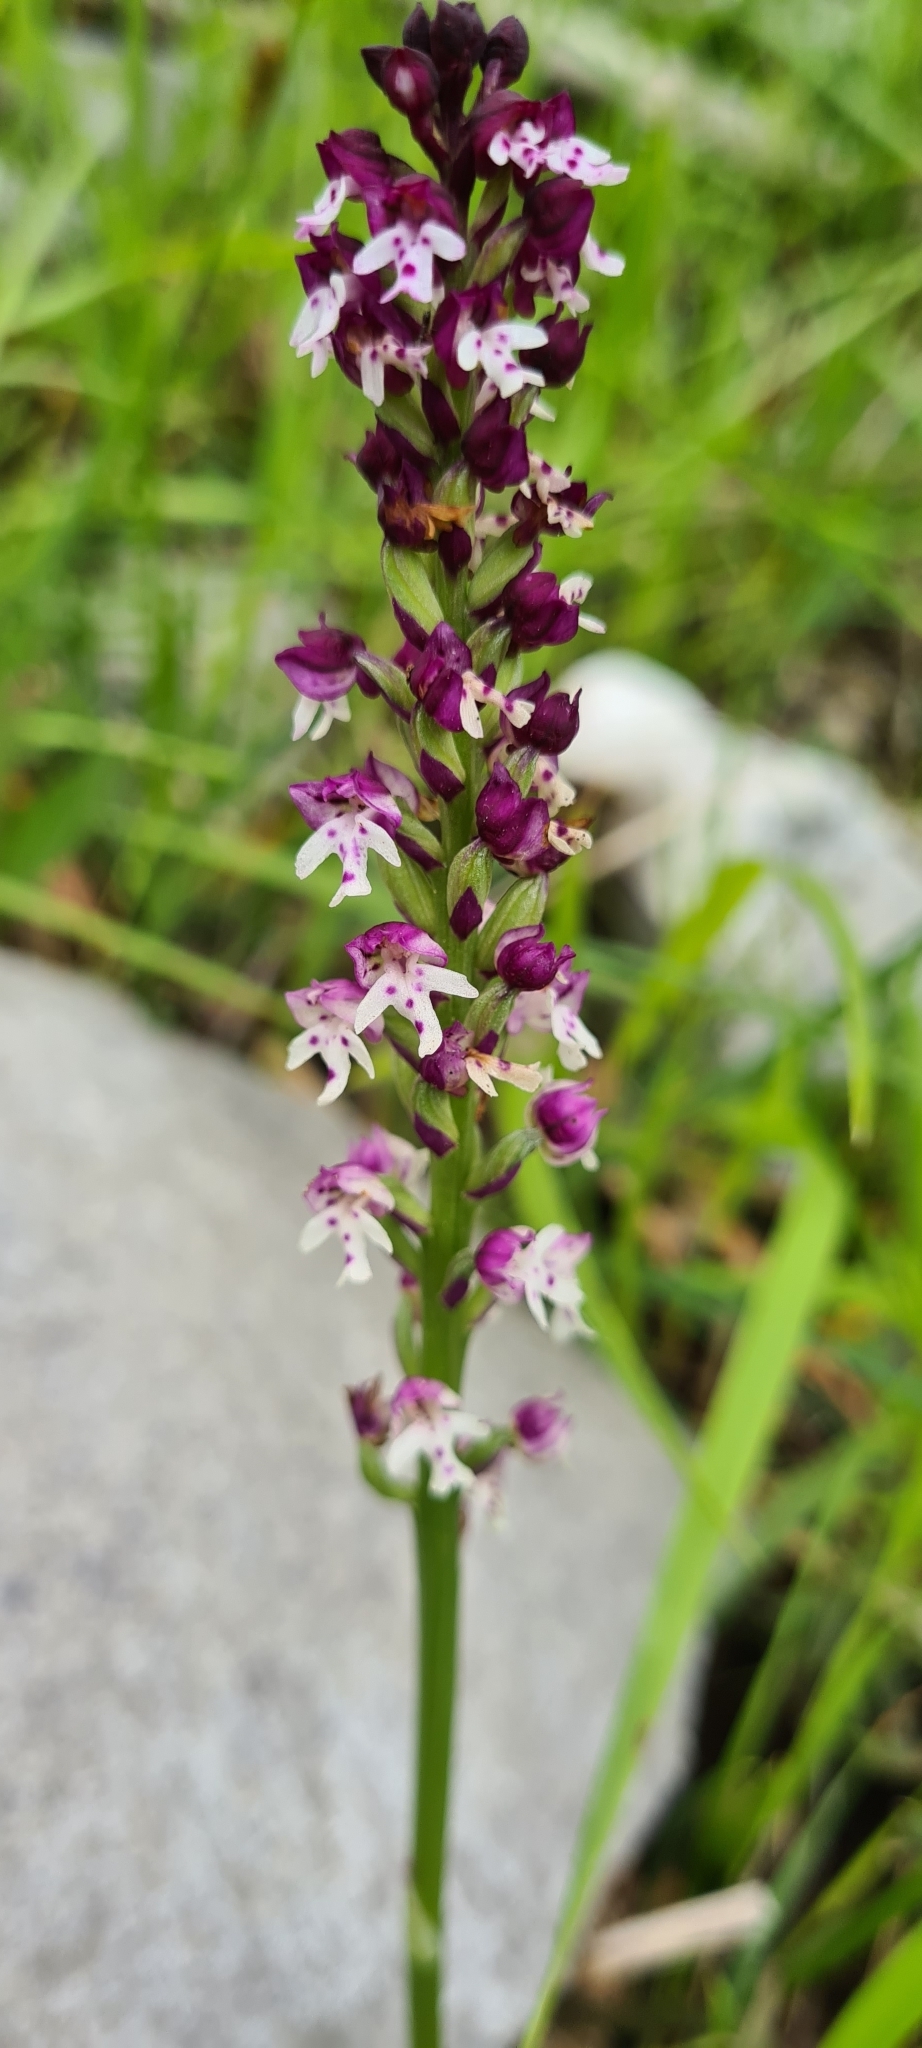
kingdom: Plantae
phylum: Tracheophyta
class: Liliopsida
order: Asparagales
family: Orchidaceae
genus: Neotinea
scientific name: Neotinea ustulata
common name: Burnt orchid
